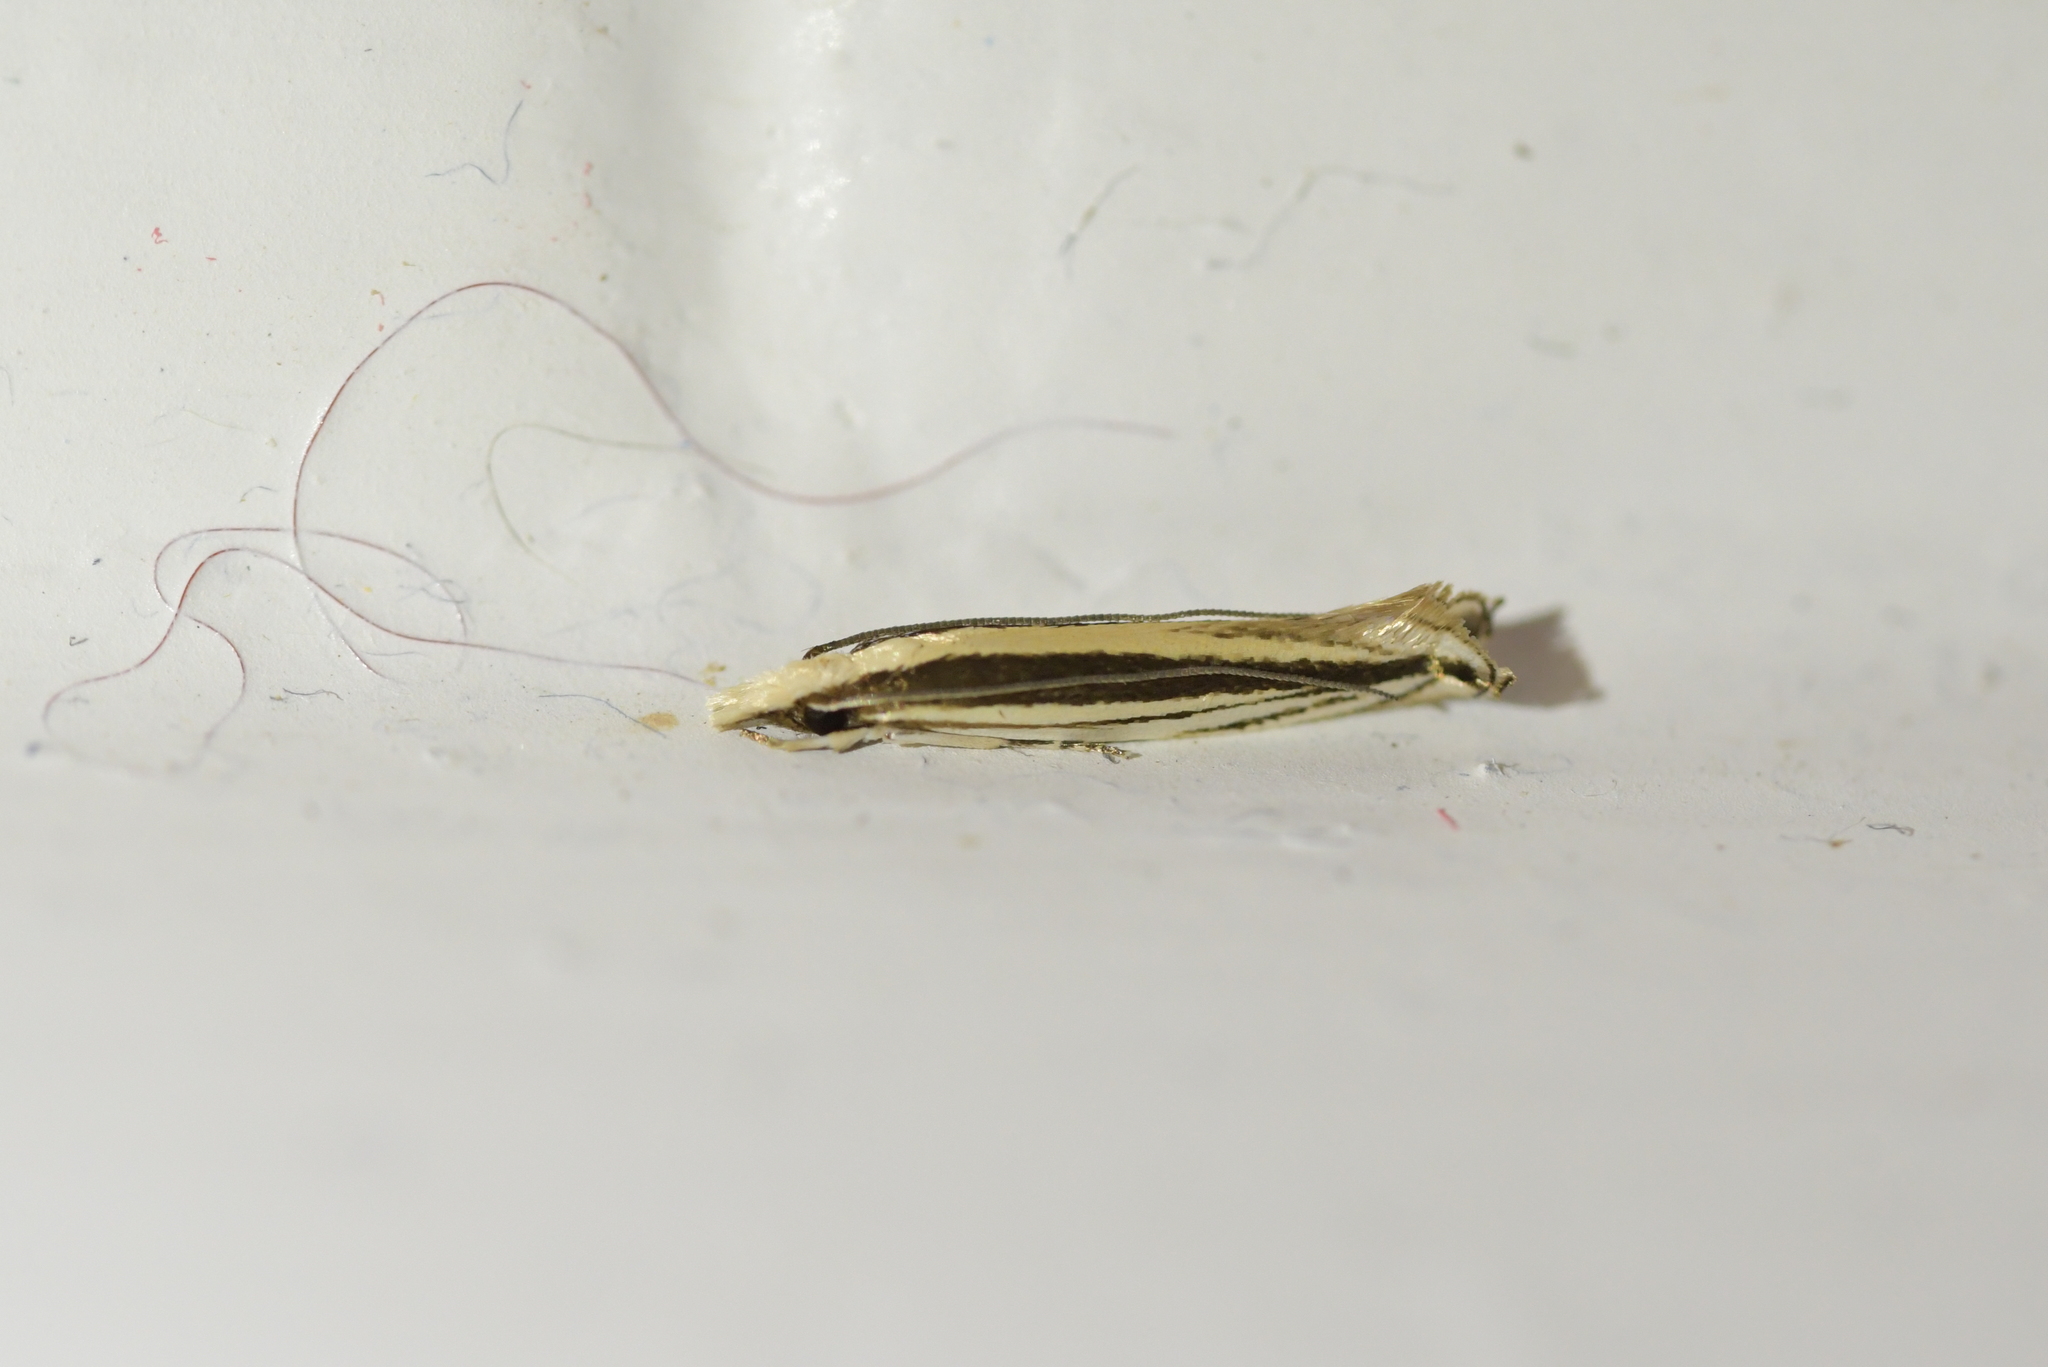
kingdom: Animalia
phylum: Arthropoda
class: Insecta
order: Lepidoptera
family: Tineidae
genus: Erechthias
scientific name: Erechthias stilbella
